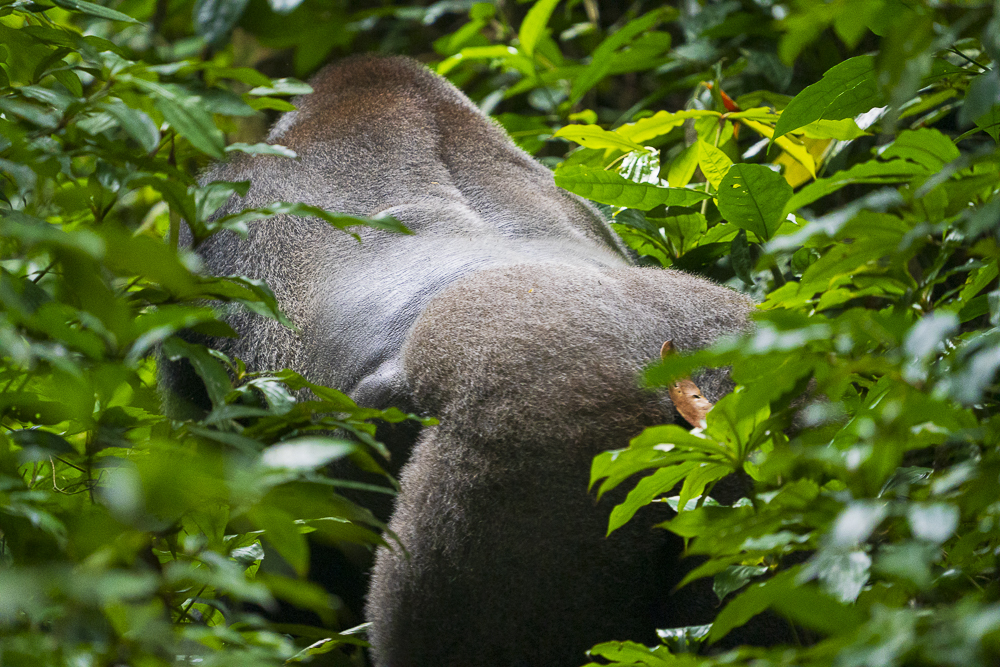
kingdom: Animalia
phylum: Chordata
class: Mammalia
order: Primates
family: Hominidae
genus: Gorilla
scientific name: Gorilla gorilla
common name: Western gorilla
